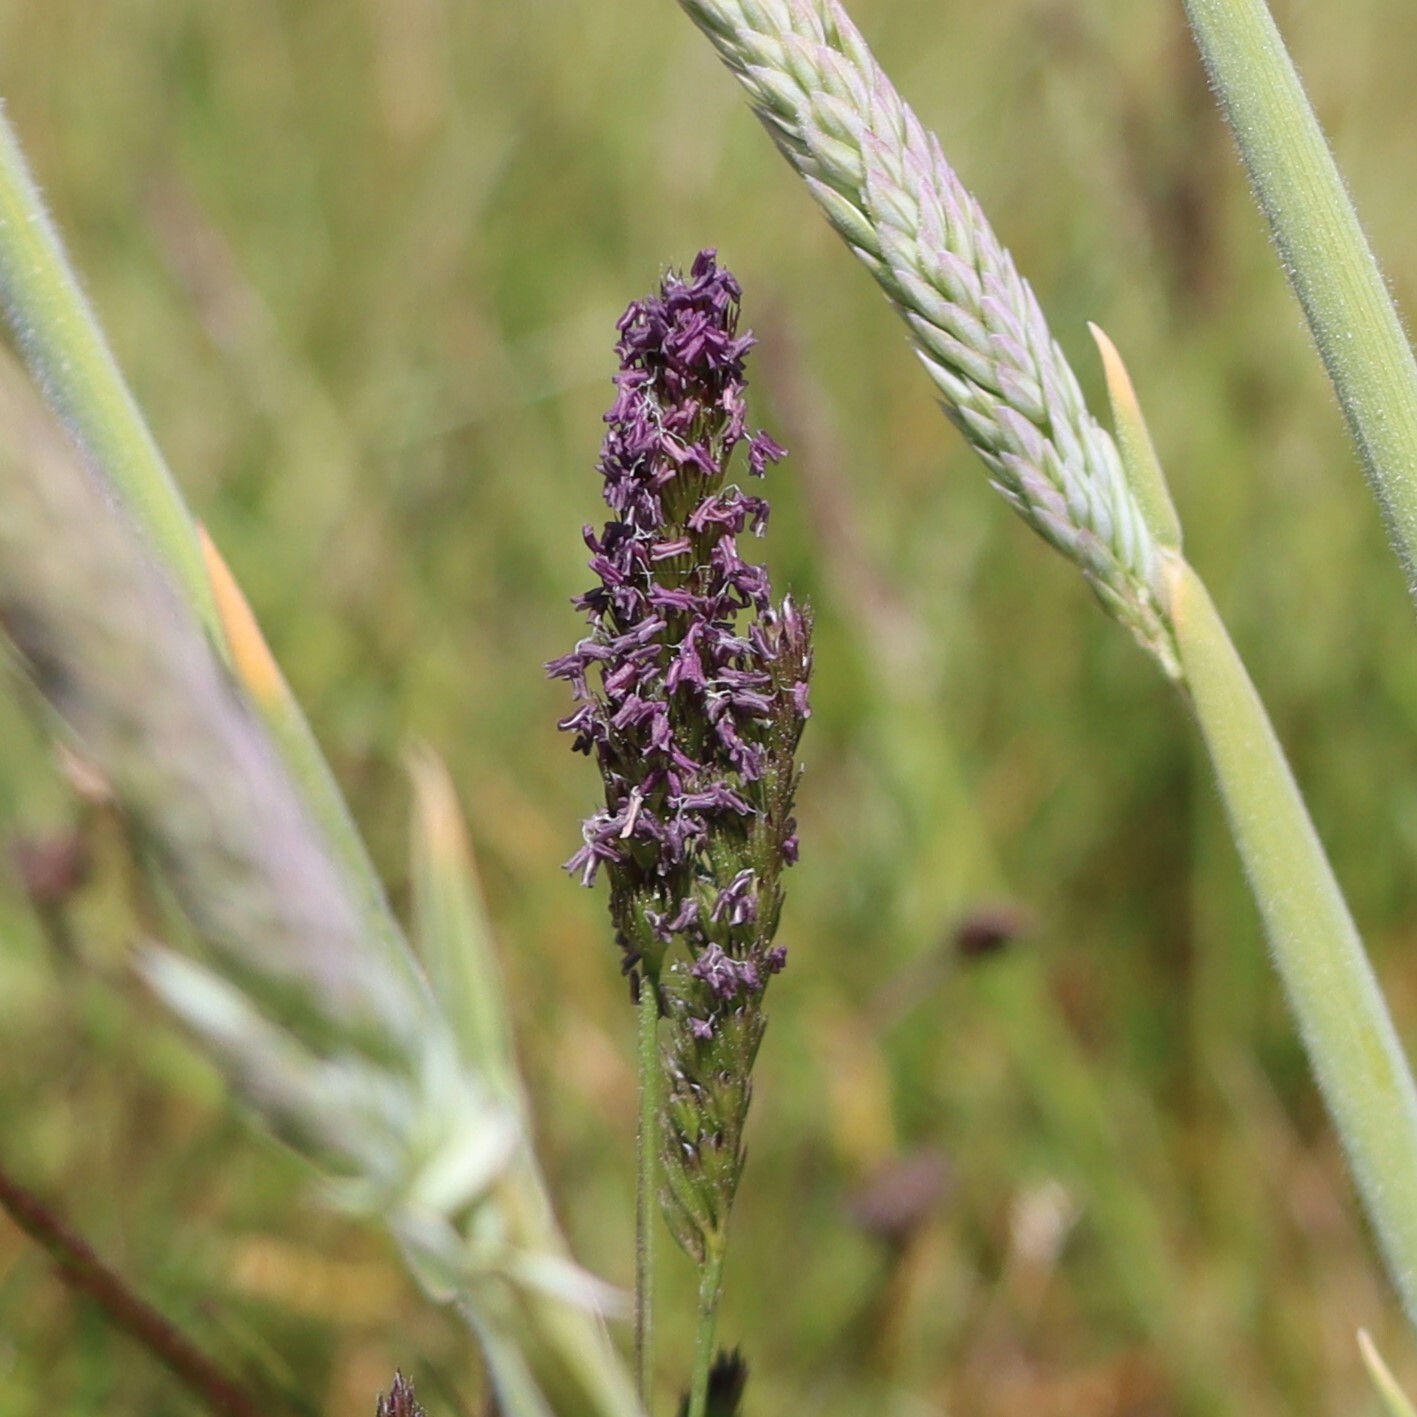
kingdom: Plantae
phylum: Tracheophyta
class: Liliopsida
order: Poales
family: Poaceae
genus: Cynosurus
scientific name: Cynosurus cristatus
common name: Crested dog's-tail
